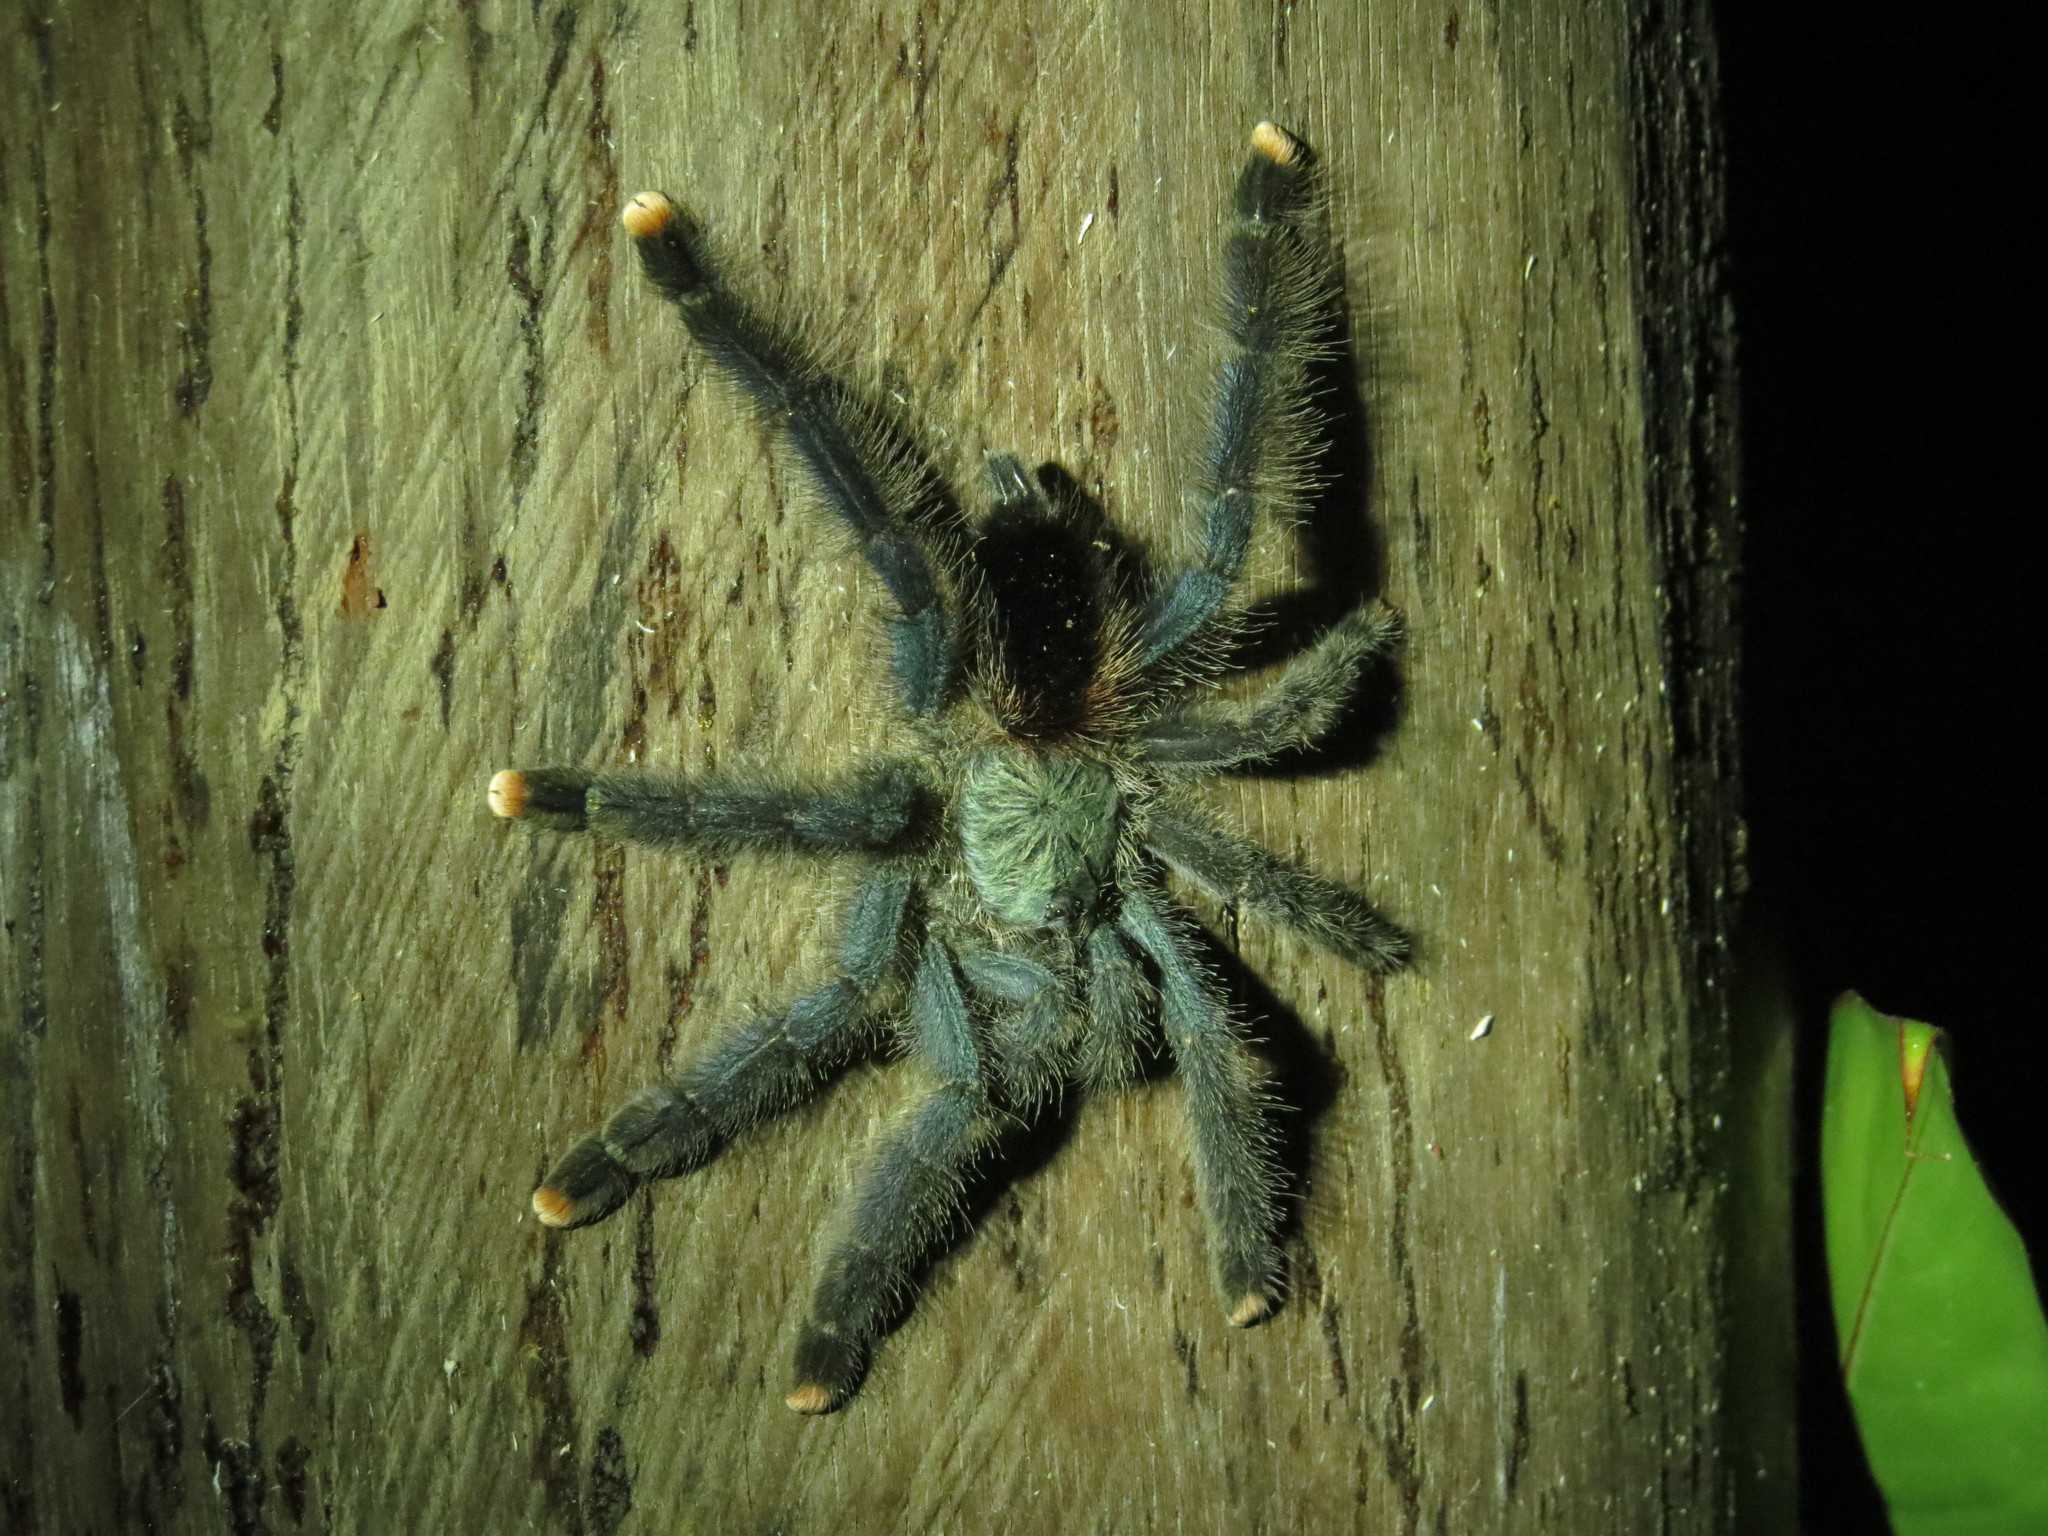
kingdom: Animalia
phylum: Arthropoda
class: Arachnida
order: Araneae
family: Theraphosidae
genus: Avicularia
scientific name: Avicularia avicularia
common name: Tarantula spiders
